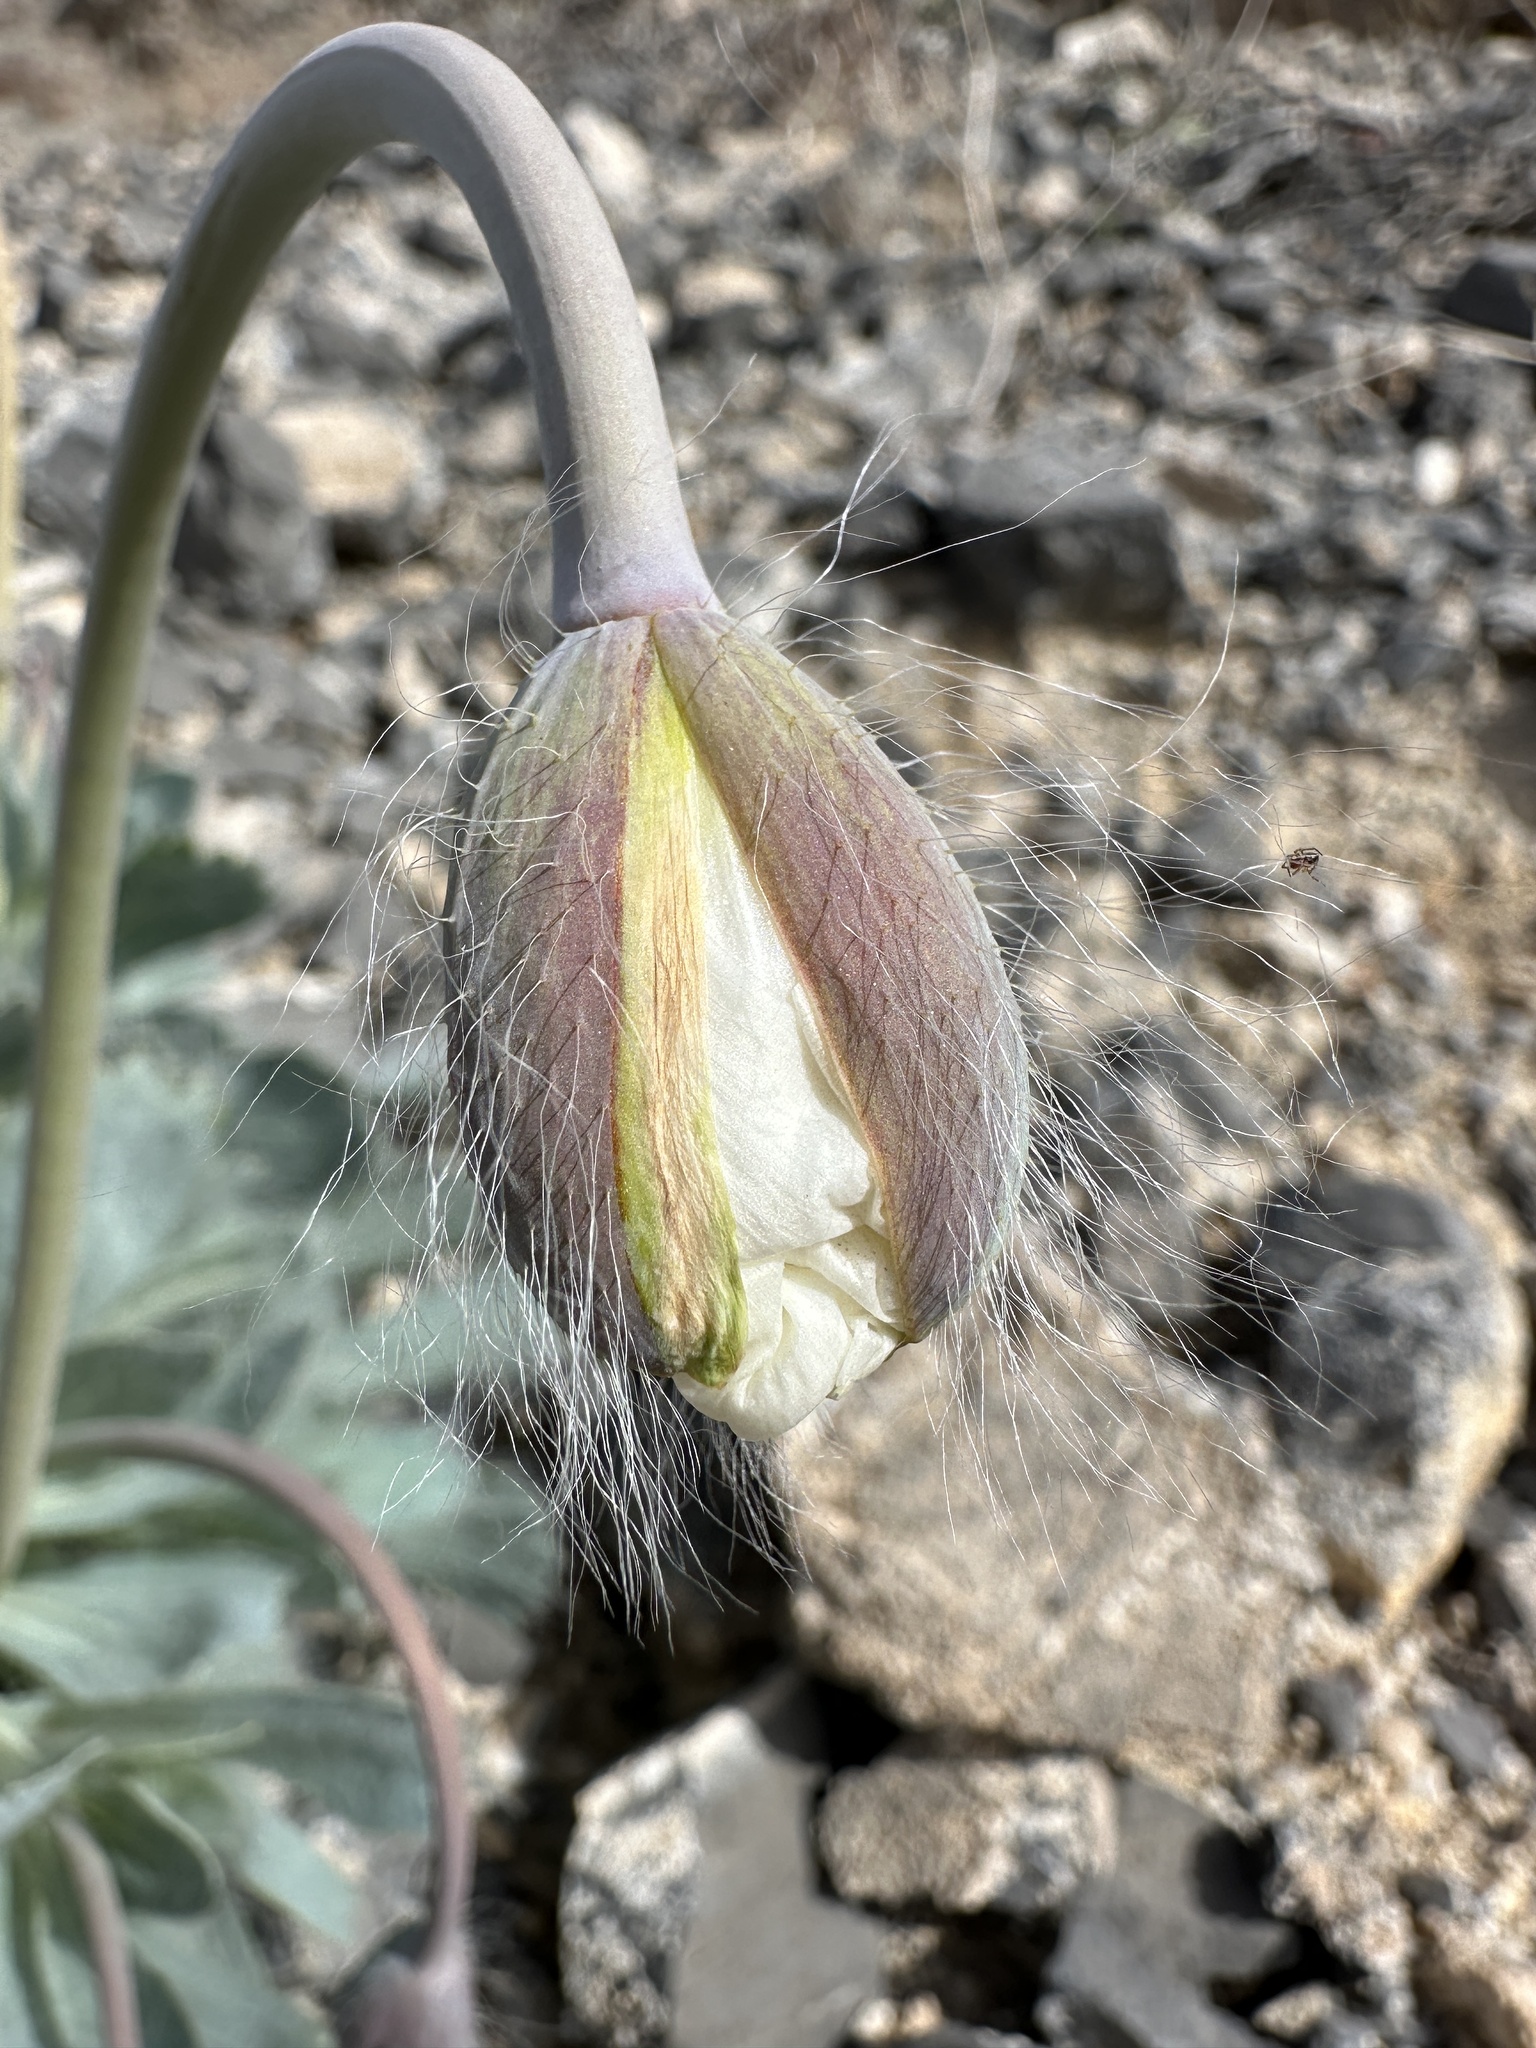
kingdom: Plantae
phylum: Tracheophyta
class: Magnoliopsida
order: Ranunculales
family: Papaveraceae
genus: Arctomecon
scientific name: Arctomecon merriamii
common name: White bear-poppy
